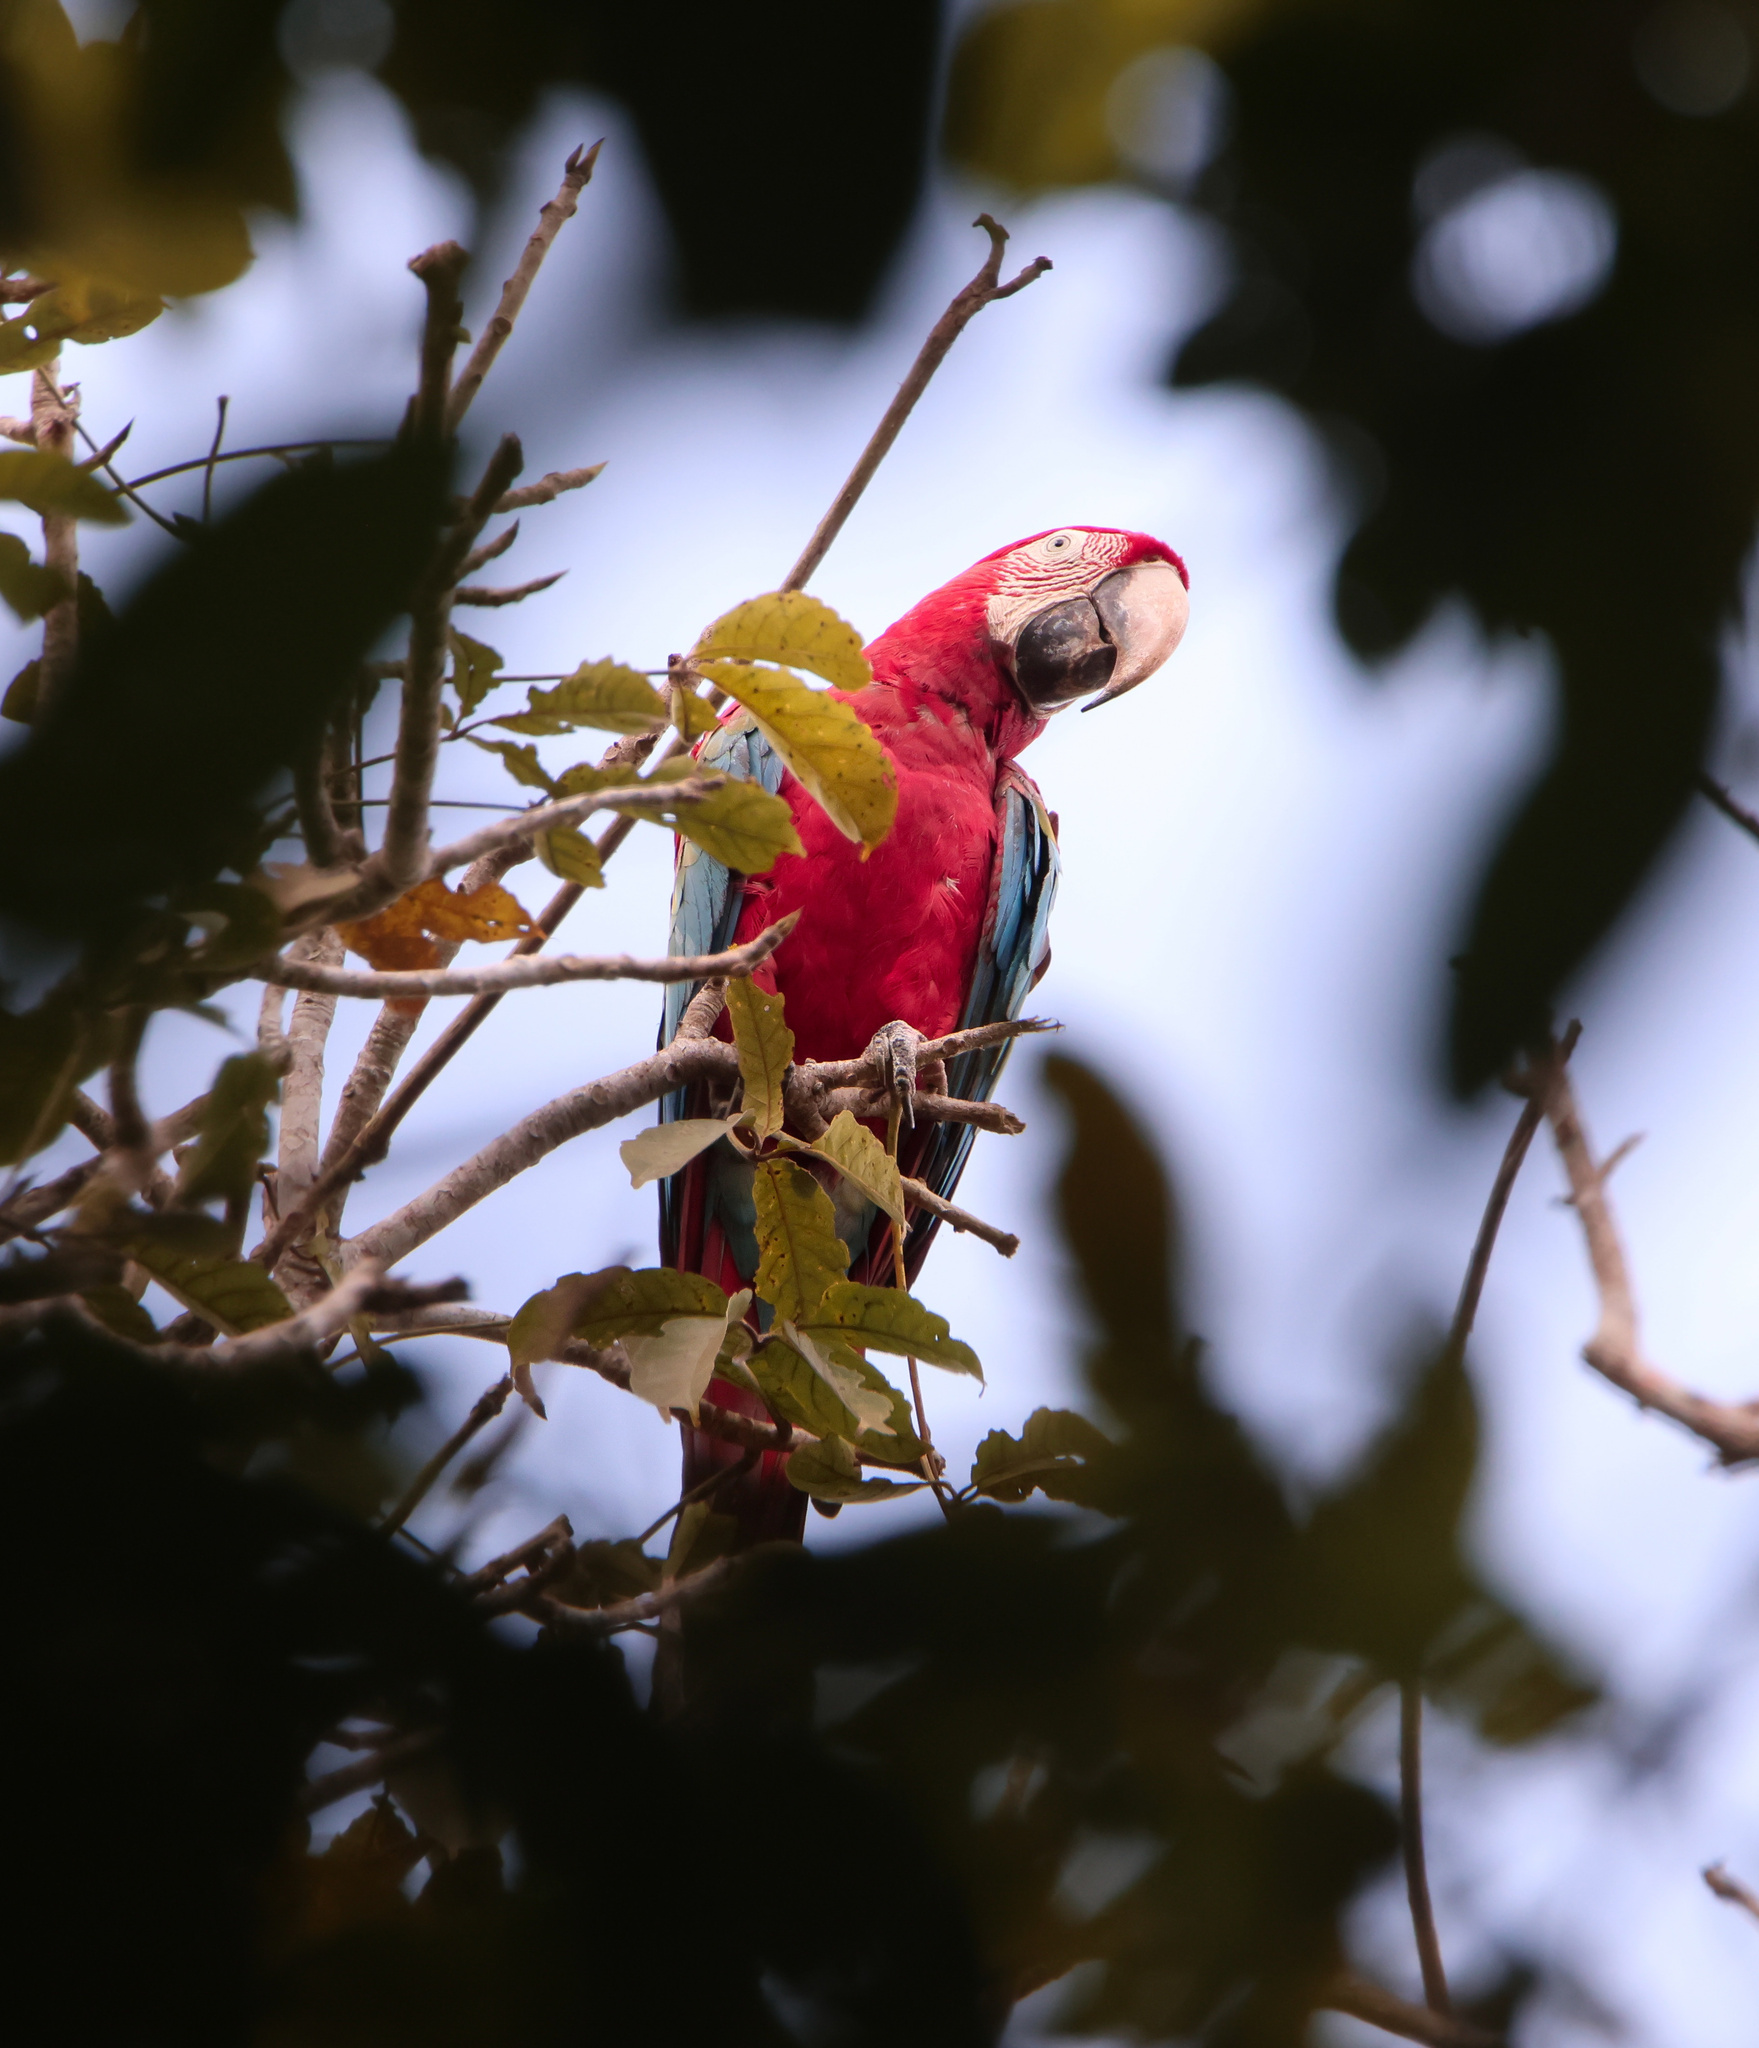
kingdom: Animalia
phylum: Chordata
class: Aves
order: Psittaciformes
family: Psittacidae
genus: Ara
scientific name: Ara chloropterus
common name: Red-and-green macaw
